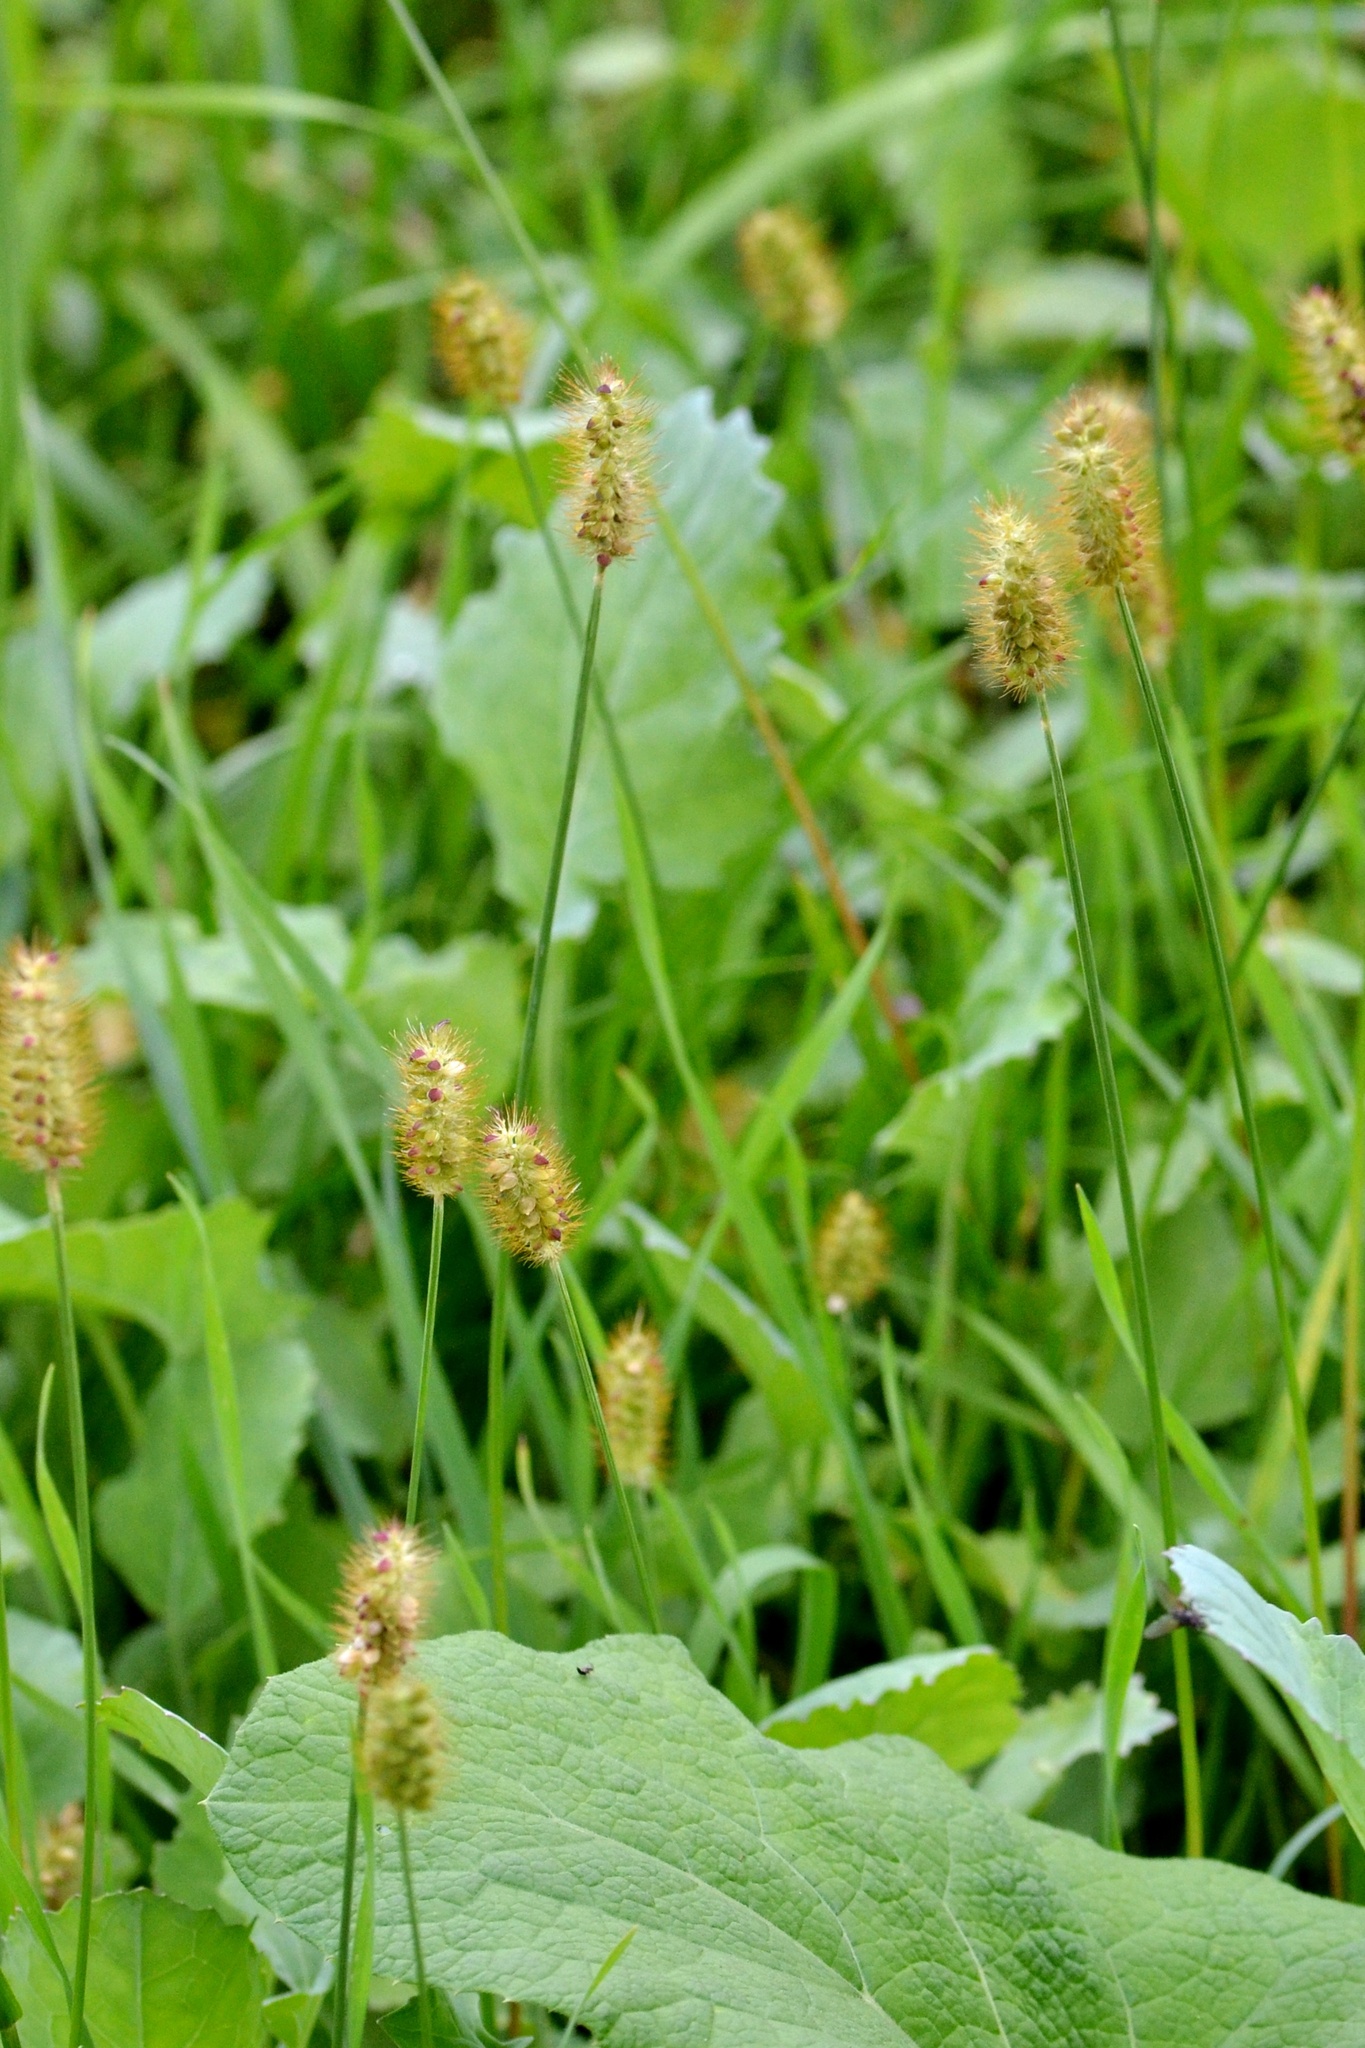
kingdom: Plantae
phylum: Tracheophyta
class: Liliopsida
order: Poales
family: Poaceae
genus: Setaria
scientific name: Setaria pumila
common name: Yellow bristle-grass
